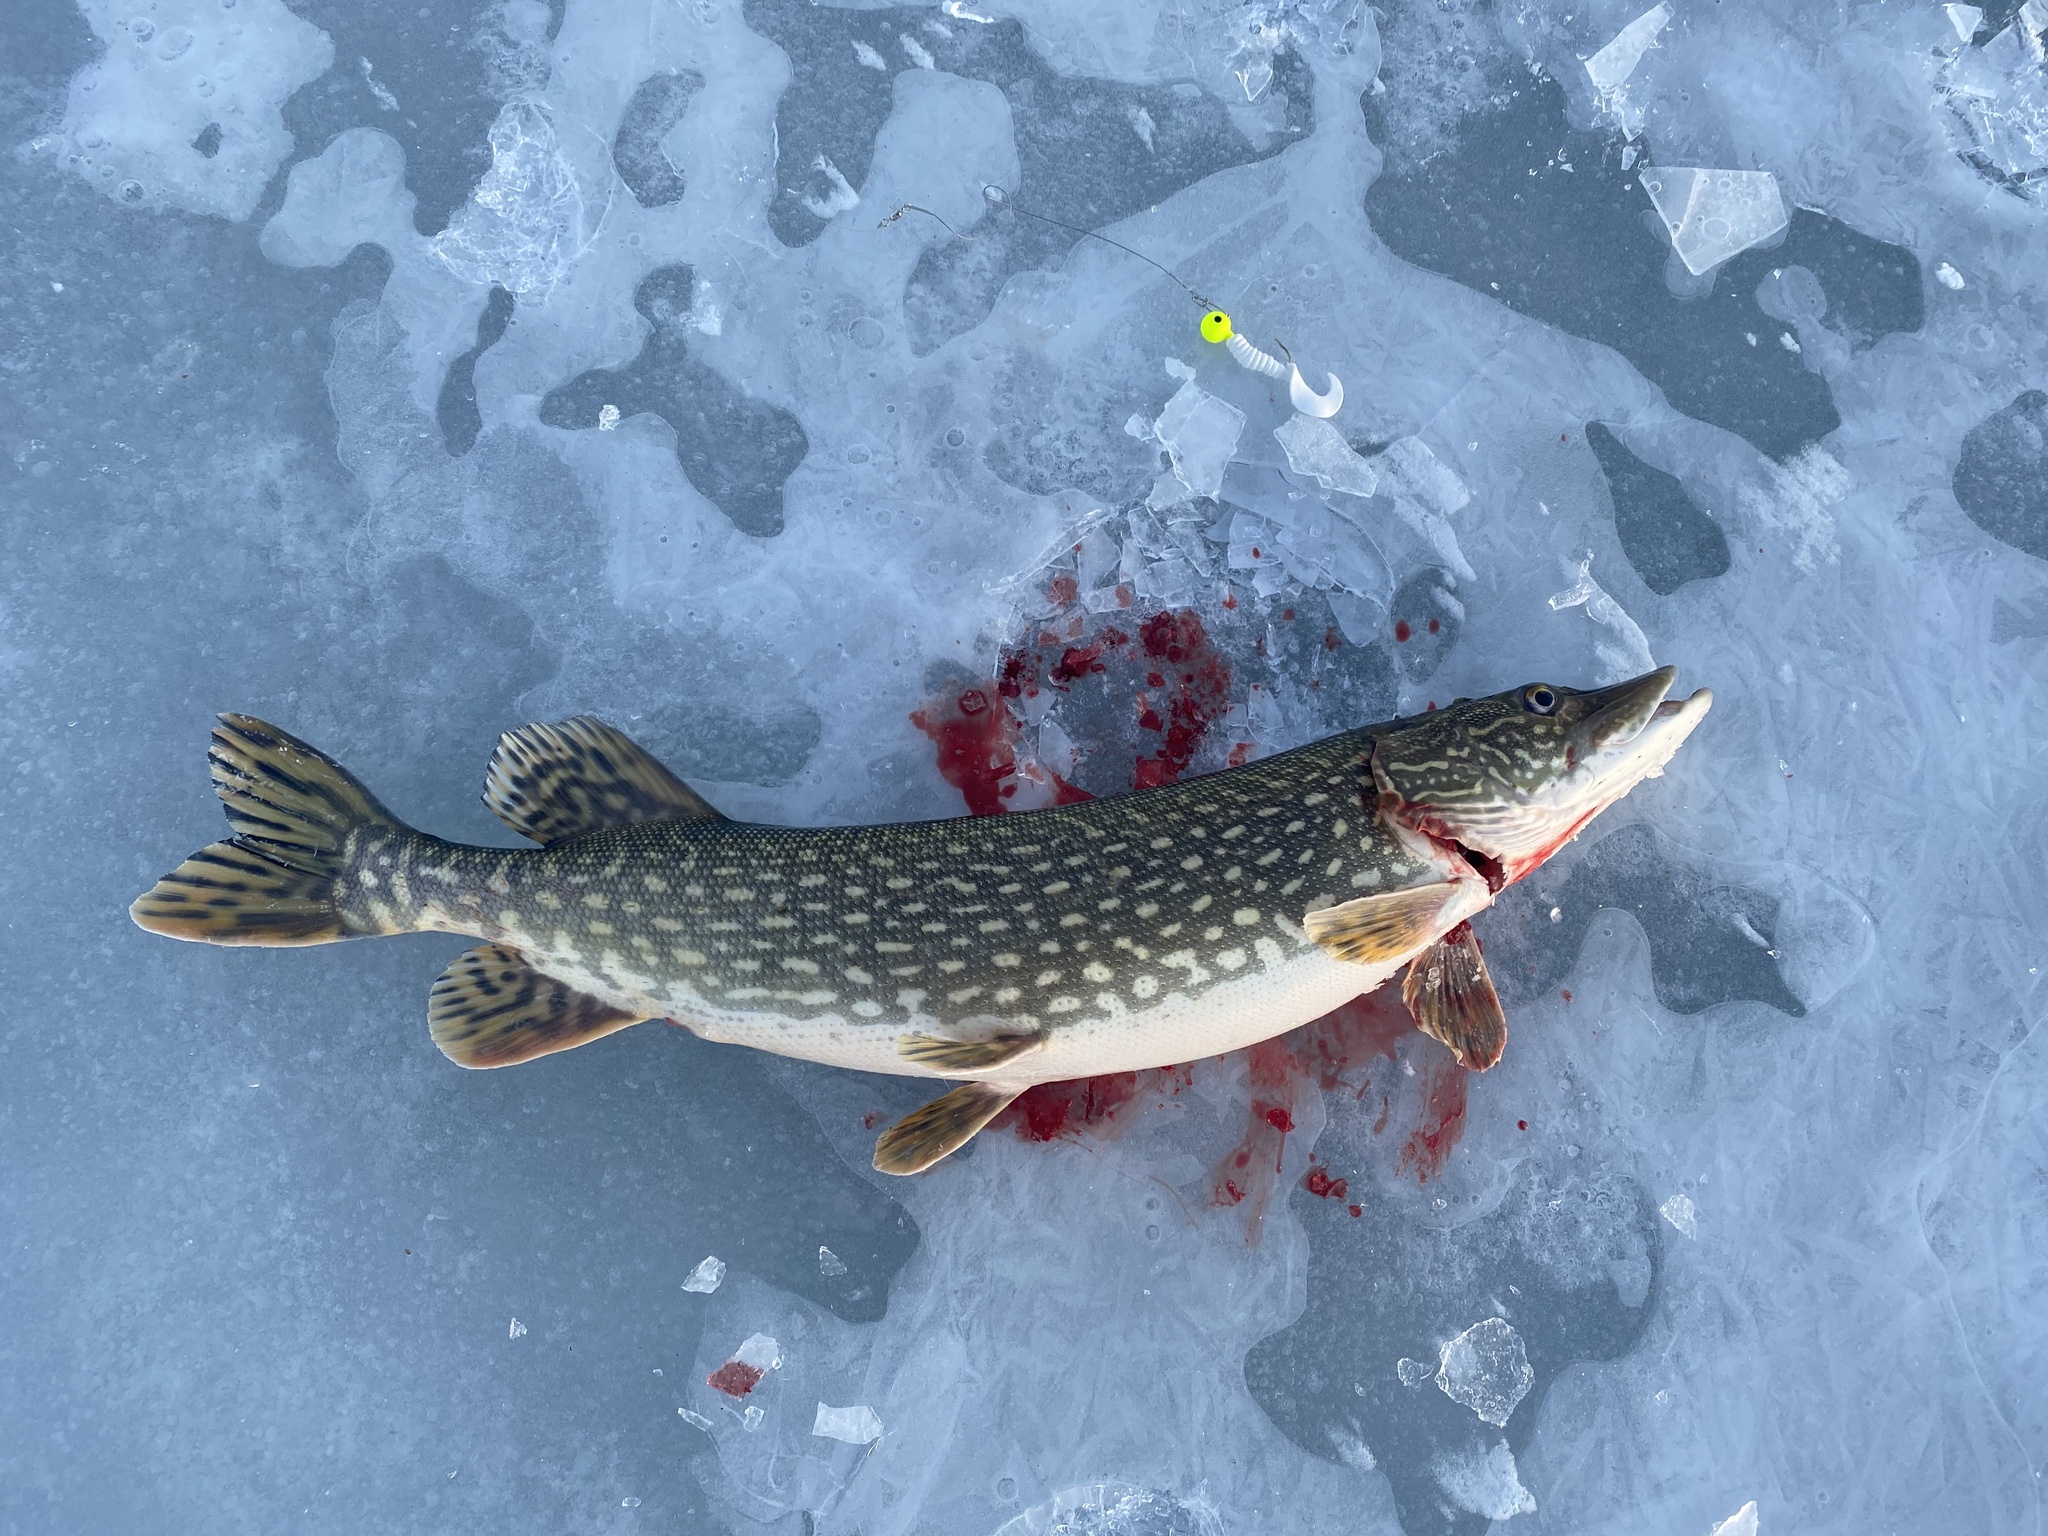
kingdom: Animalia
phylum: Chordata
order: Esociformes
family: Esocidae
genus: Esox
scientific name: Esox lucius
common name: Northern pike
